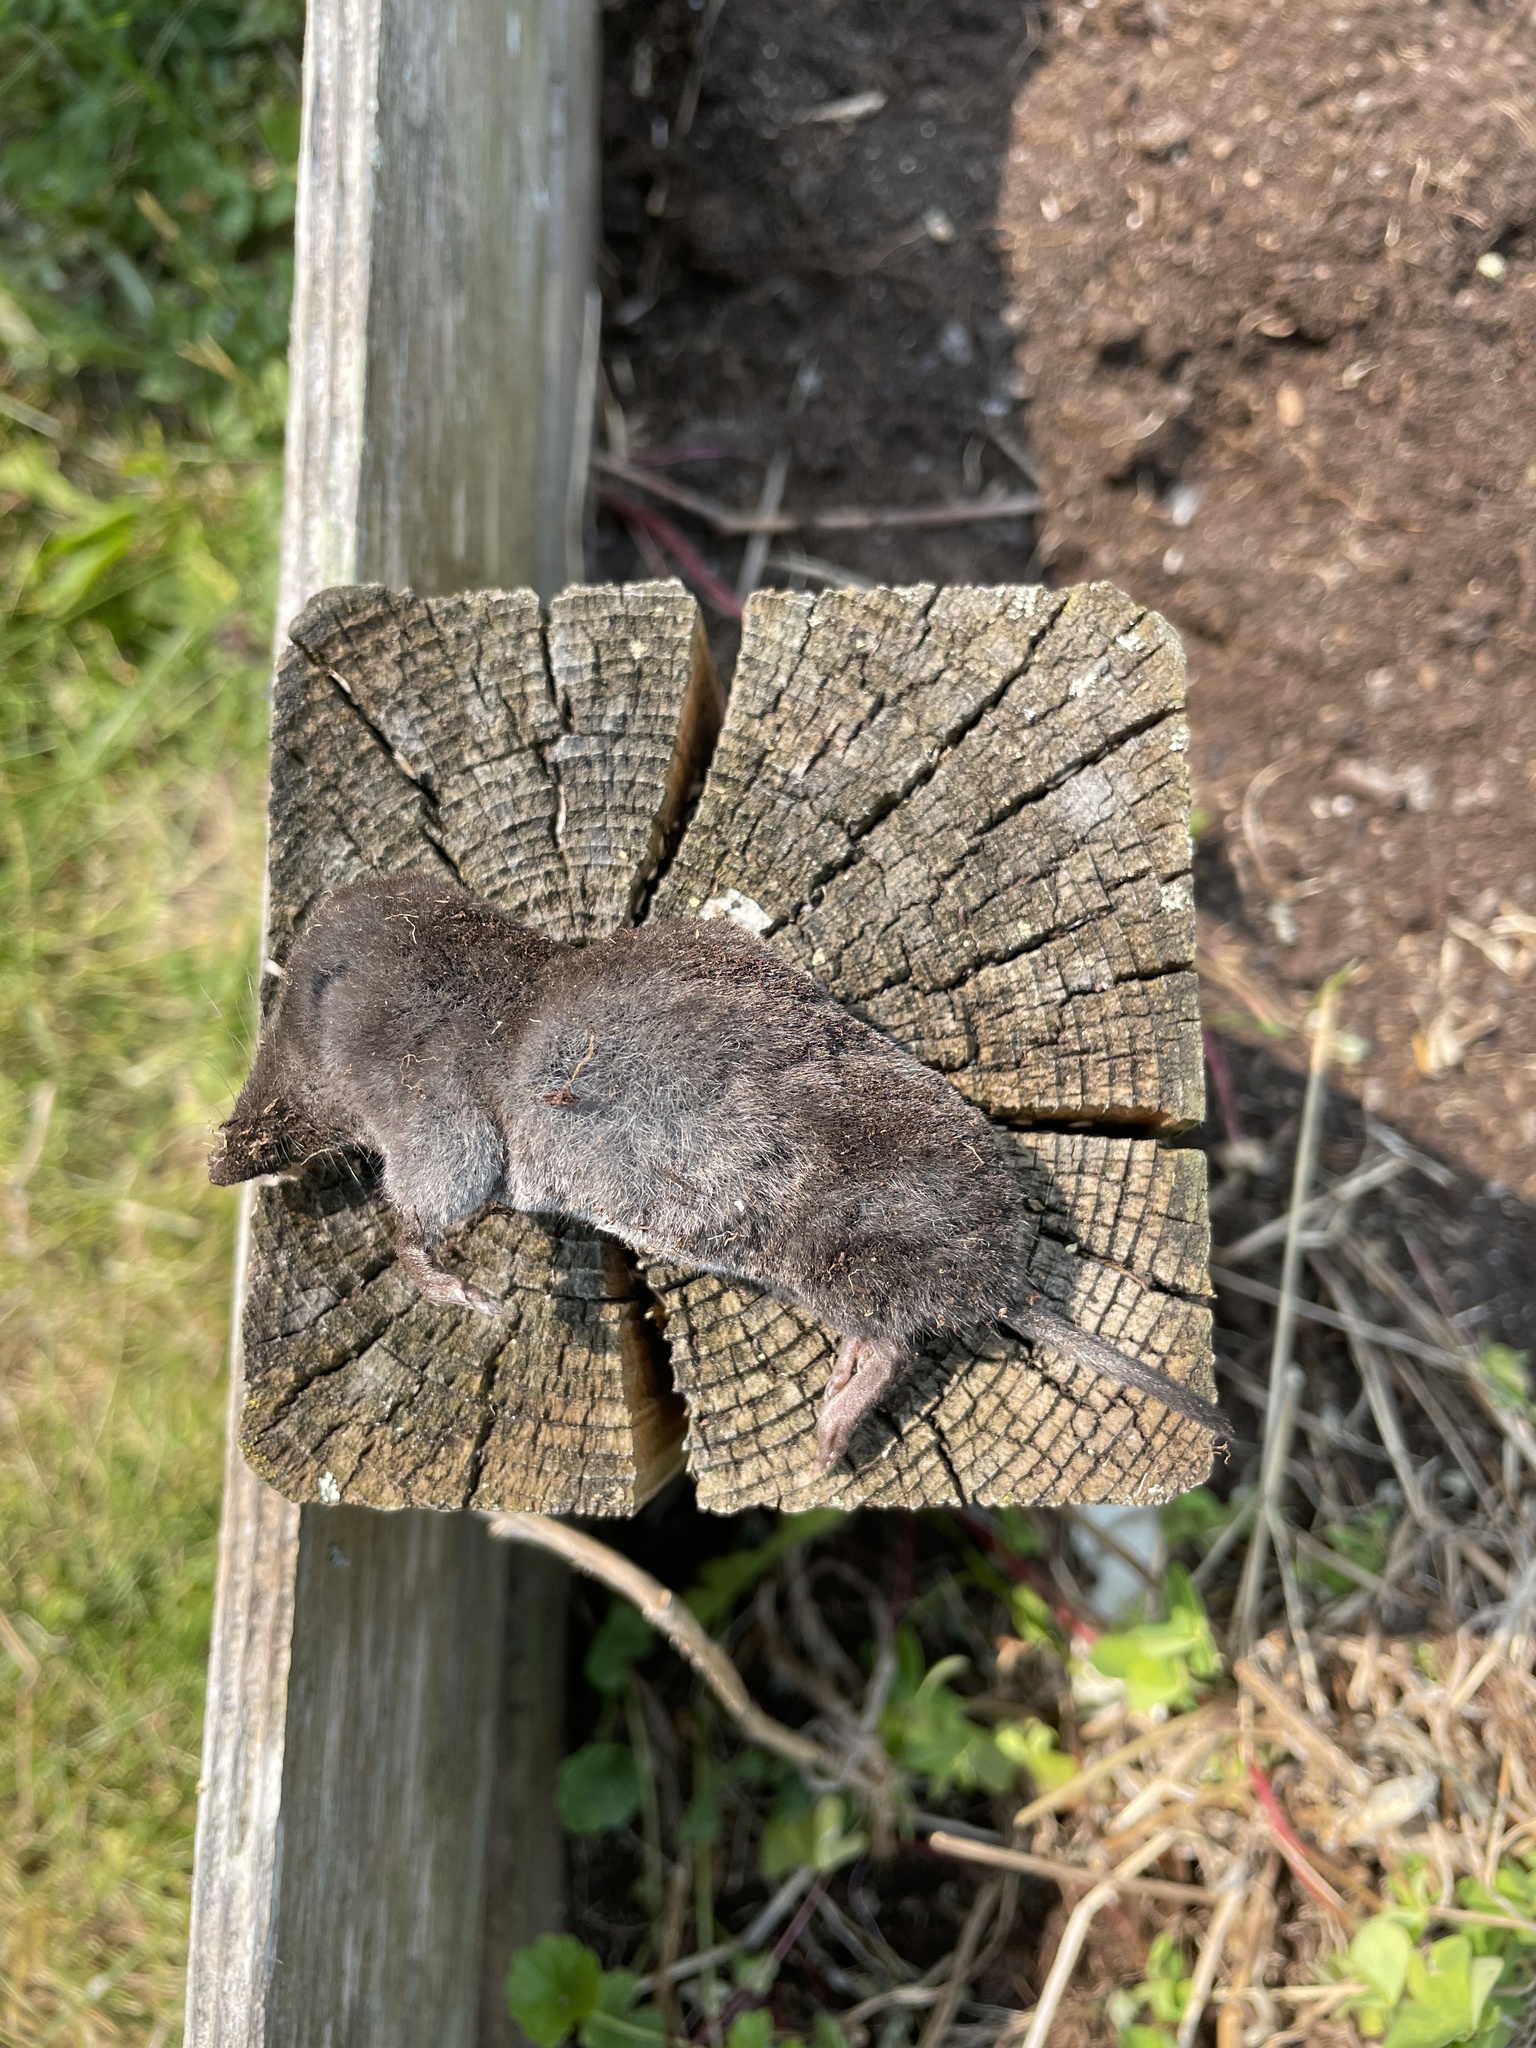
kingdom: Animalia
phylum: Chordata
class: Mammalia
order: Soricomorpha
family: Soricidae
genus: Blarina
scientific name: Blarina brevicauda
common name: Northern short-tailed shrew
